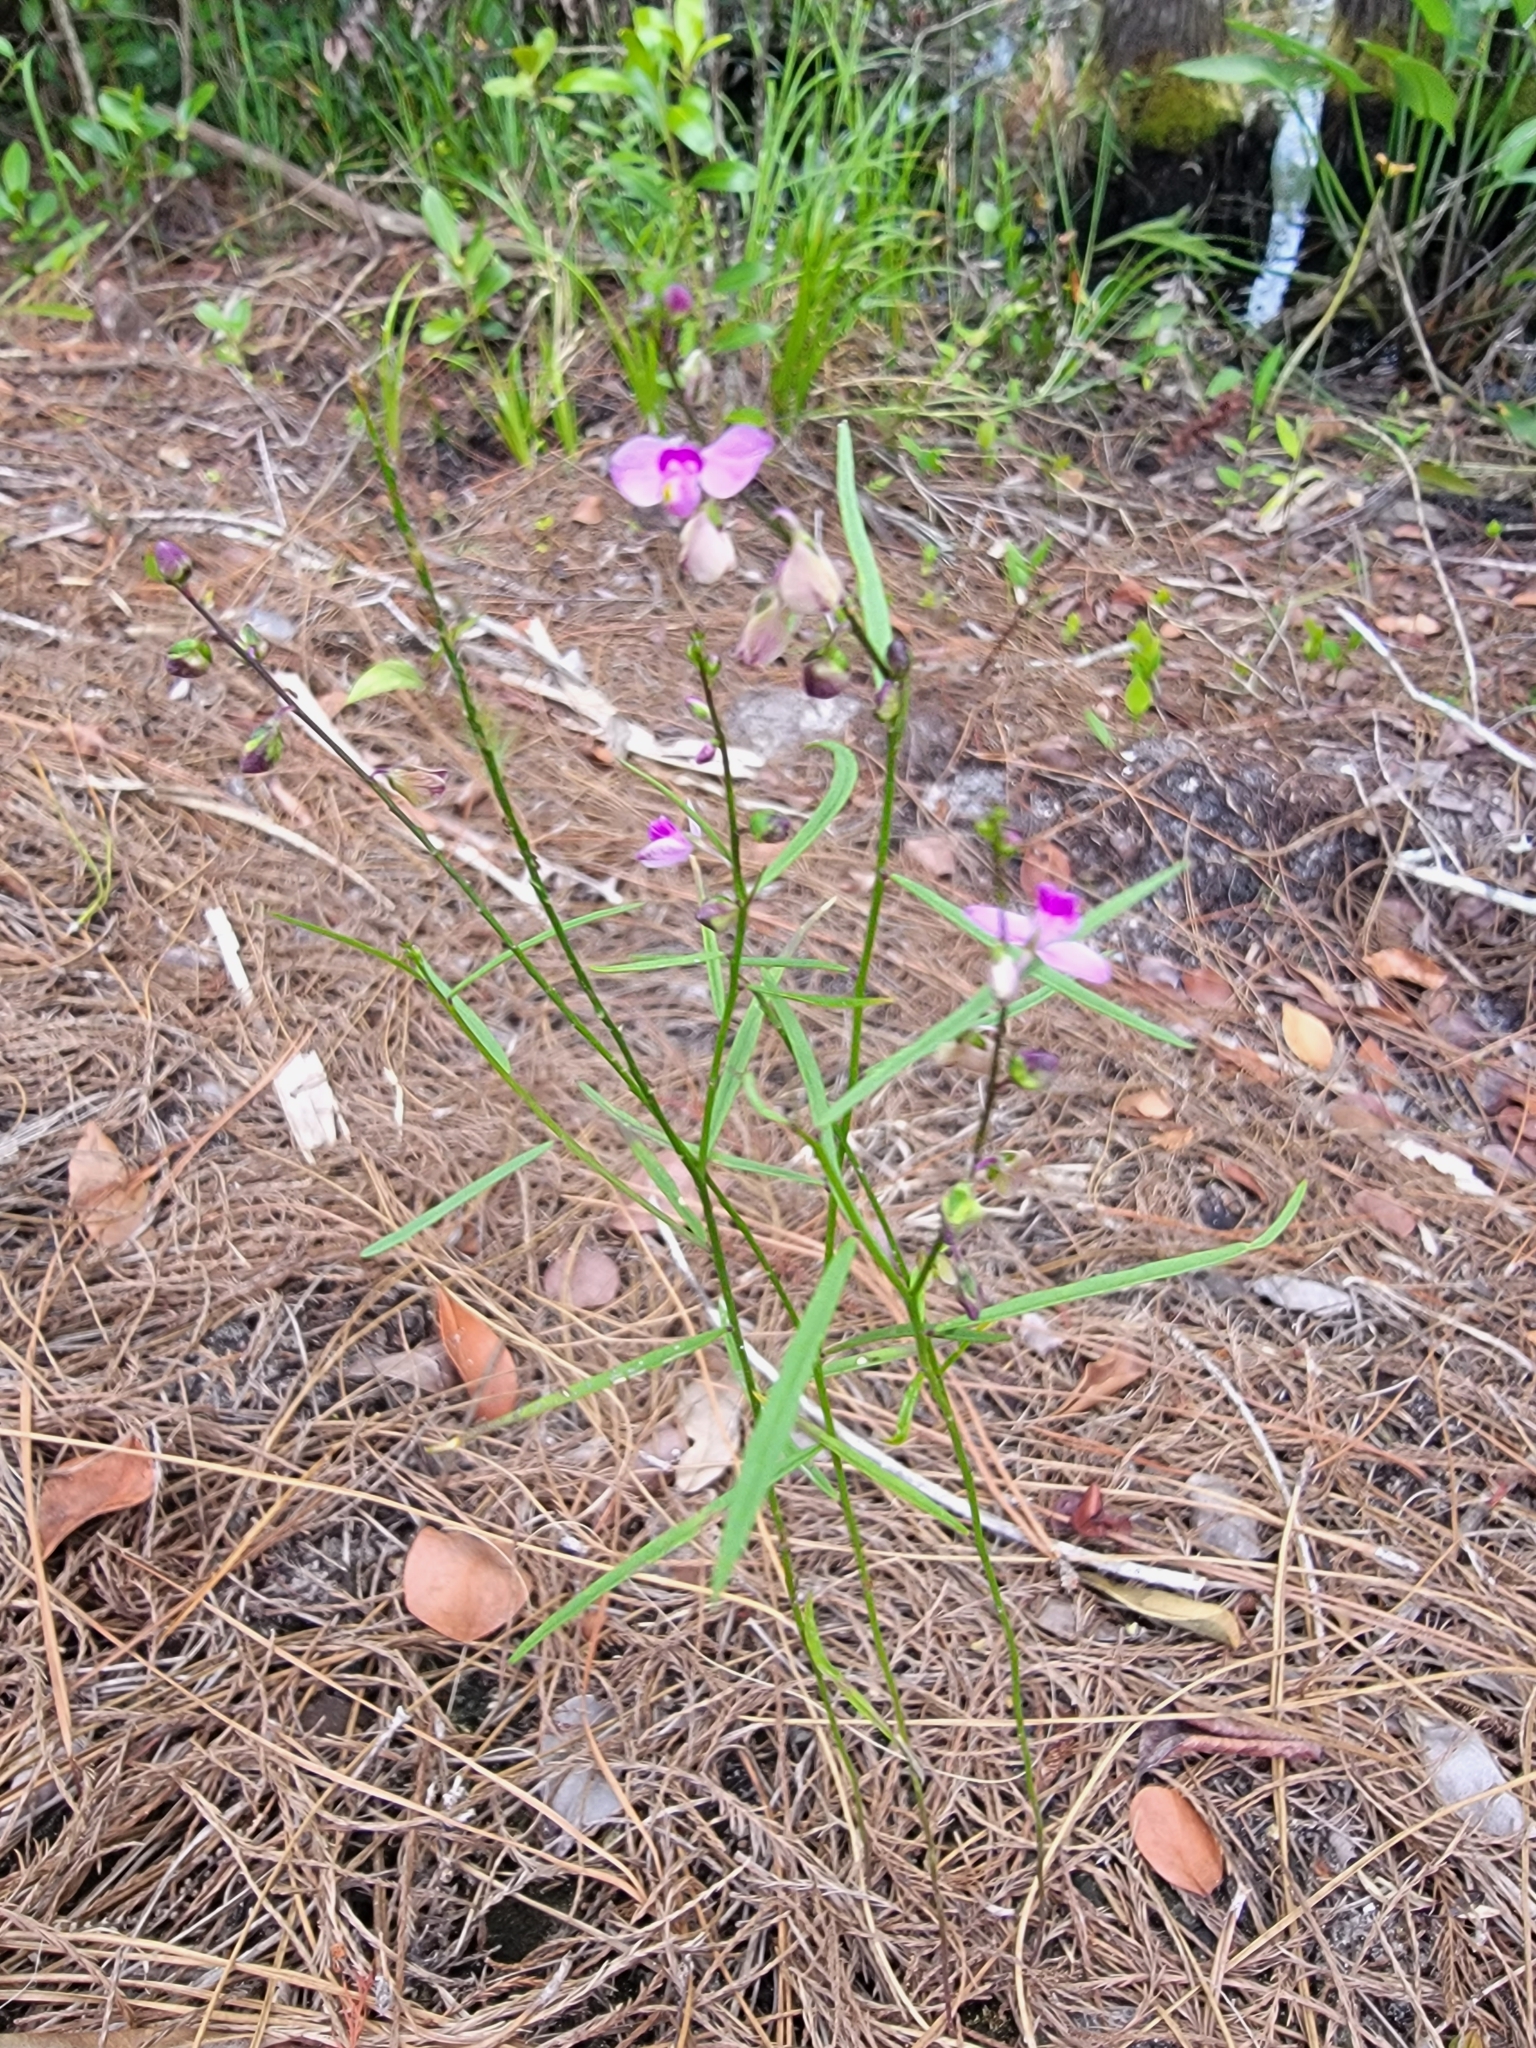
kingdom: Plantae
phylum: Tracheophyta
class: Magnoliopsida
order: Fabales
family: Polygalaceae
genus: Asemeia
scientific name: Asemeia grandiflora
